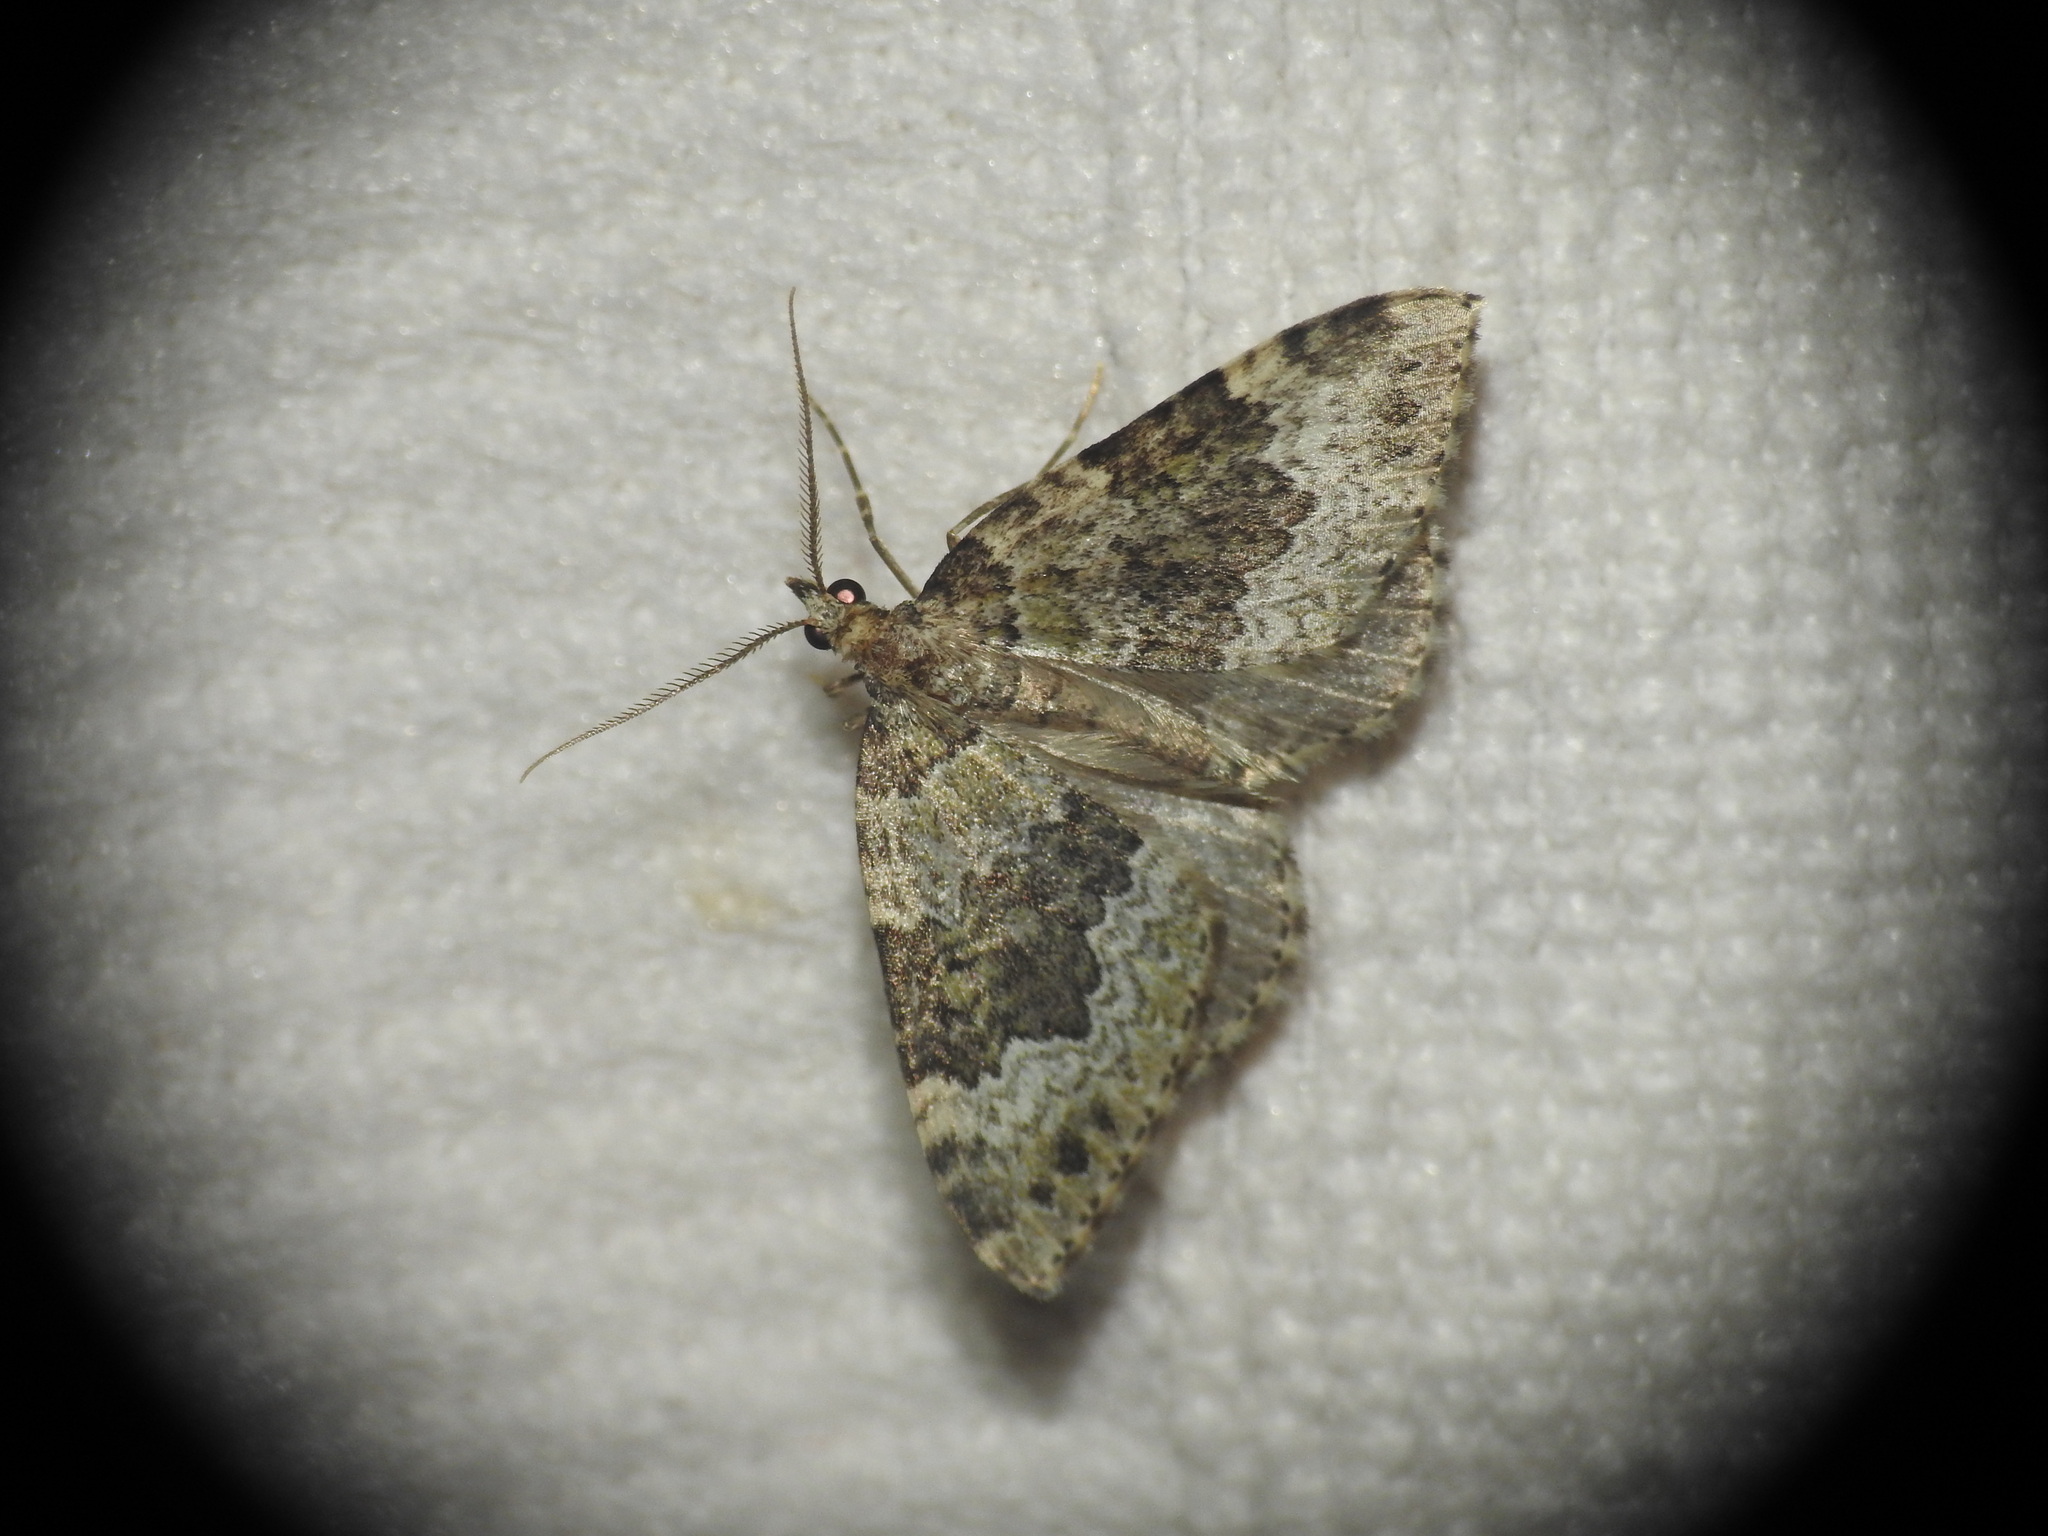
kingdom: Animalia
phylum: Arthropoda
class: Insecta
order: Lepidoptera
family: Geometridae
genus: Colostygia
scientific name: Colostygia olivata
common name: Beech-green carpet
